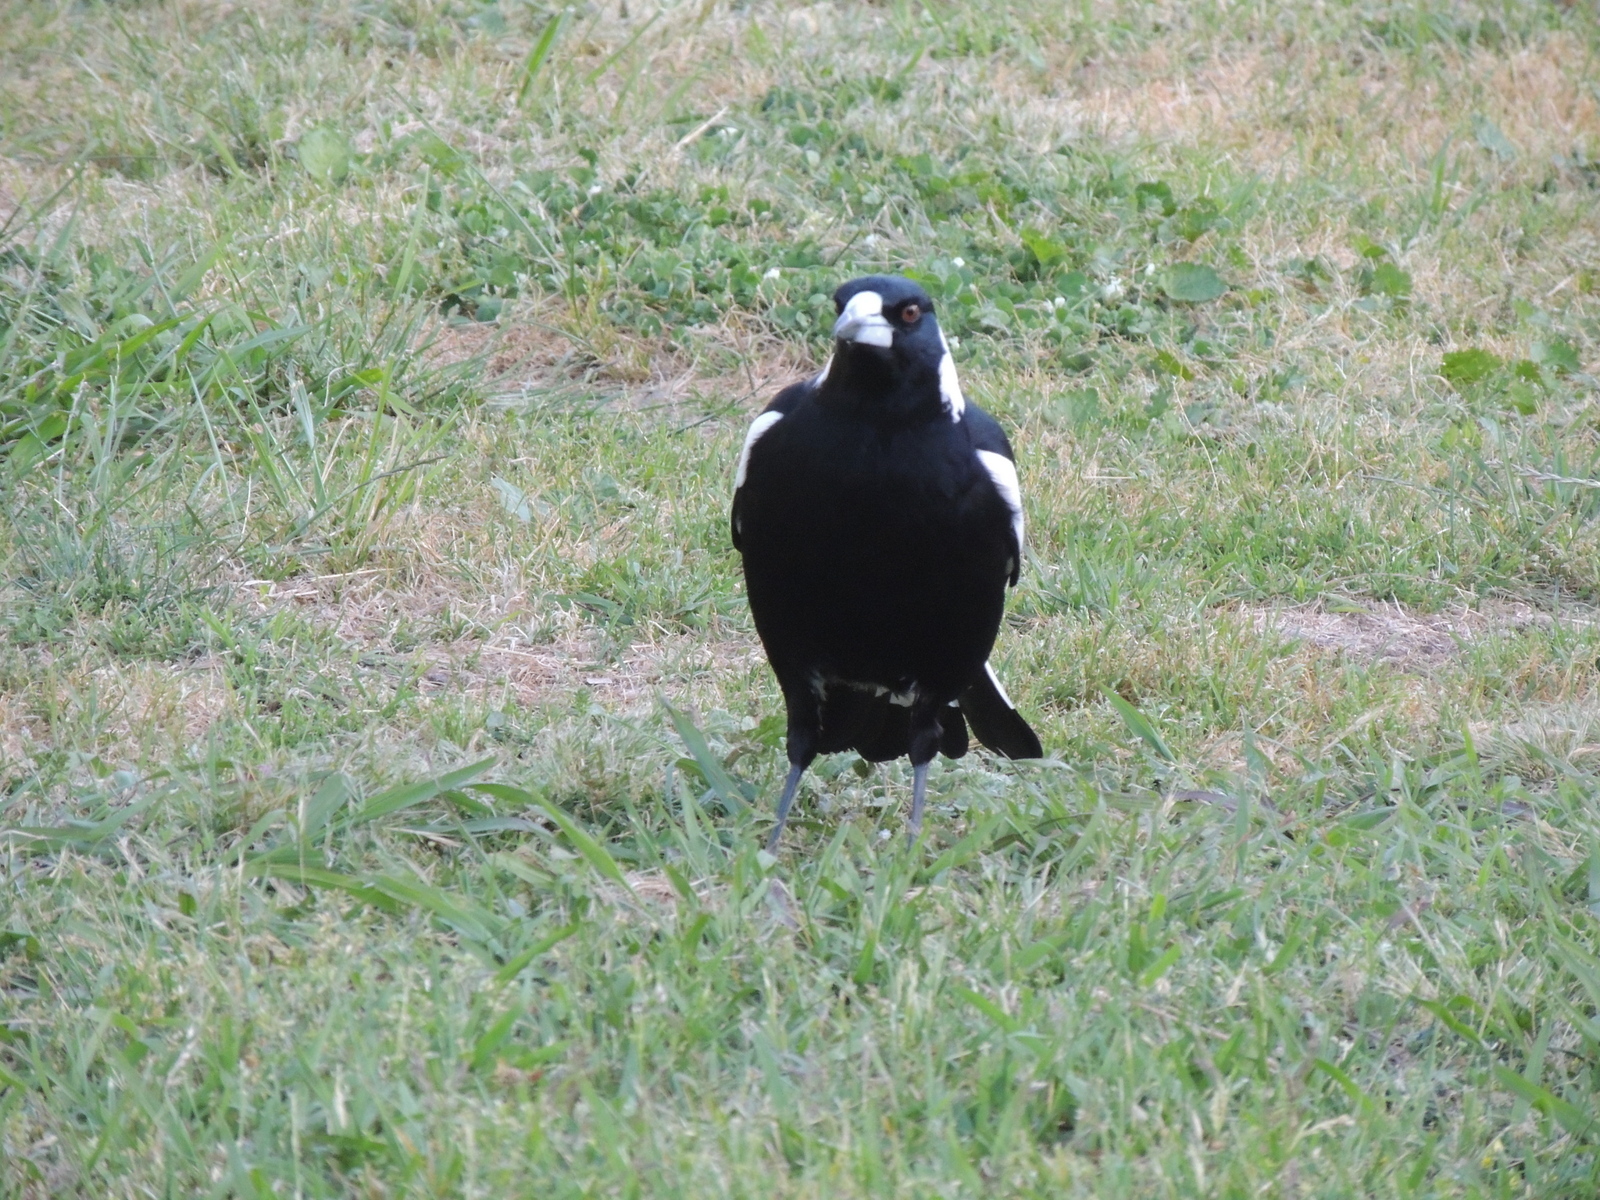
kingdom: Animalia
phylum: Chordata
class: Aves
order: Passeriformes
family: Cracticidae
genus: Gymnorhina
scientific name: Gymnorhina tibicen
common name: Australian magpie
